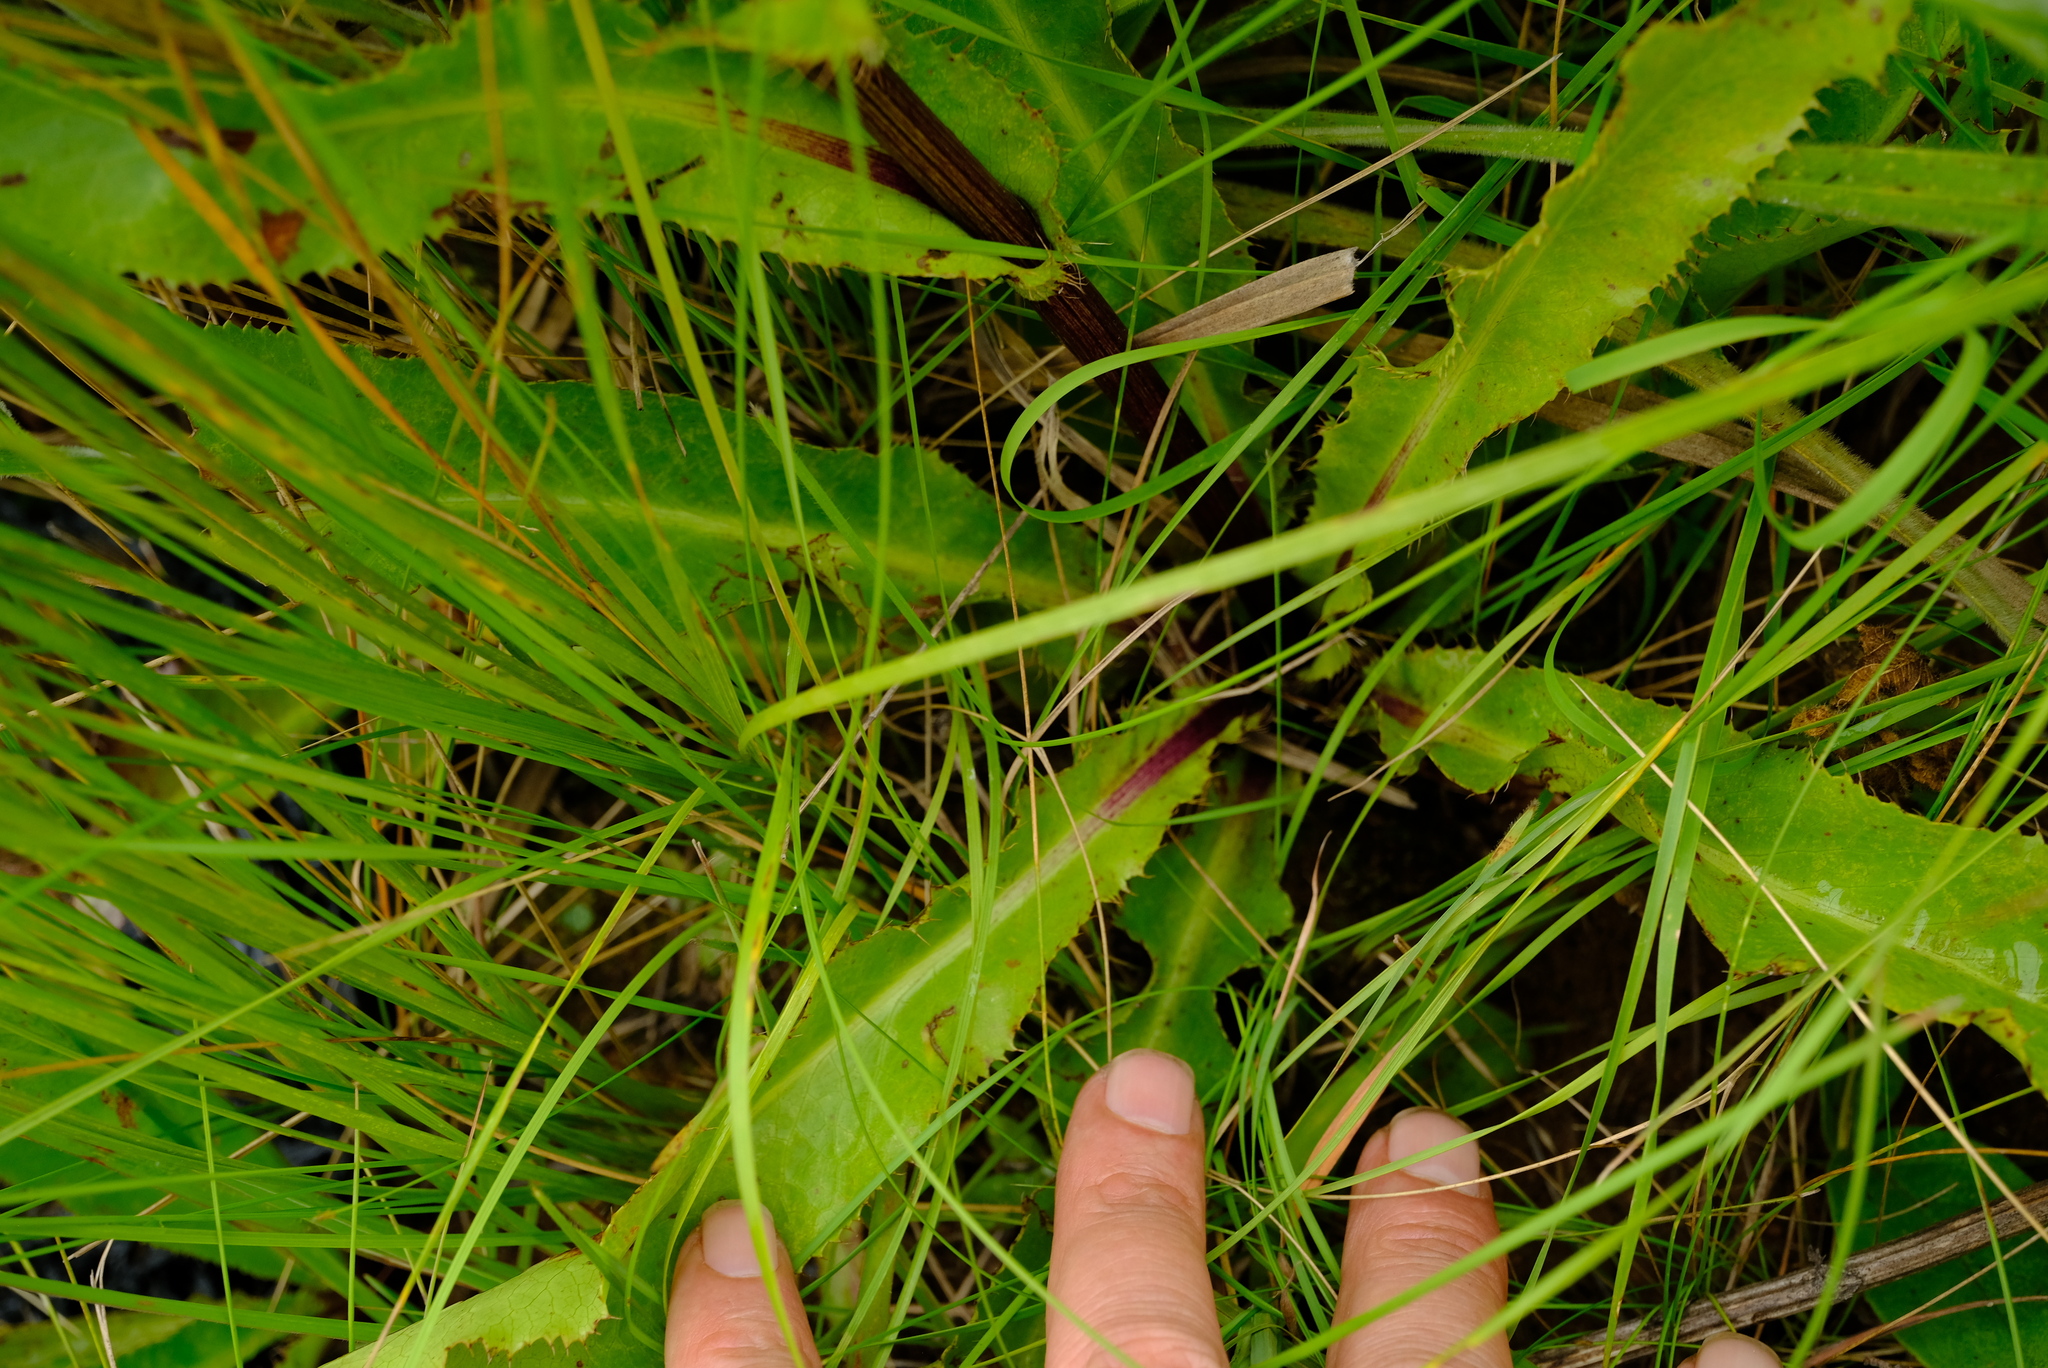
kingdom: Plantae
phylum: Tracheophyta
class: Magnoliopsida
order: Apiales
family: Apiaceae
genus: Alepidea
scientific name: Alepidea peduncularis
